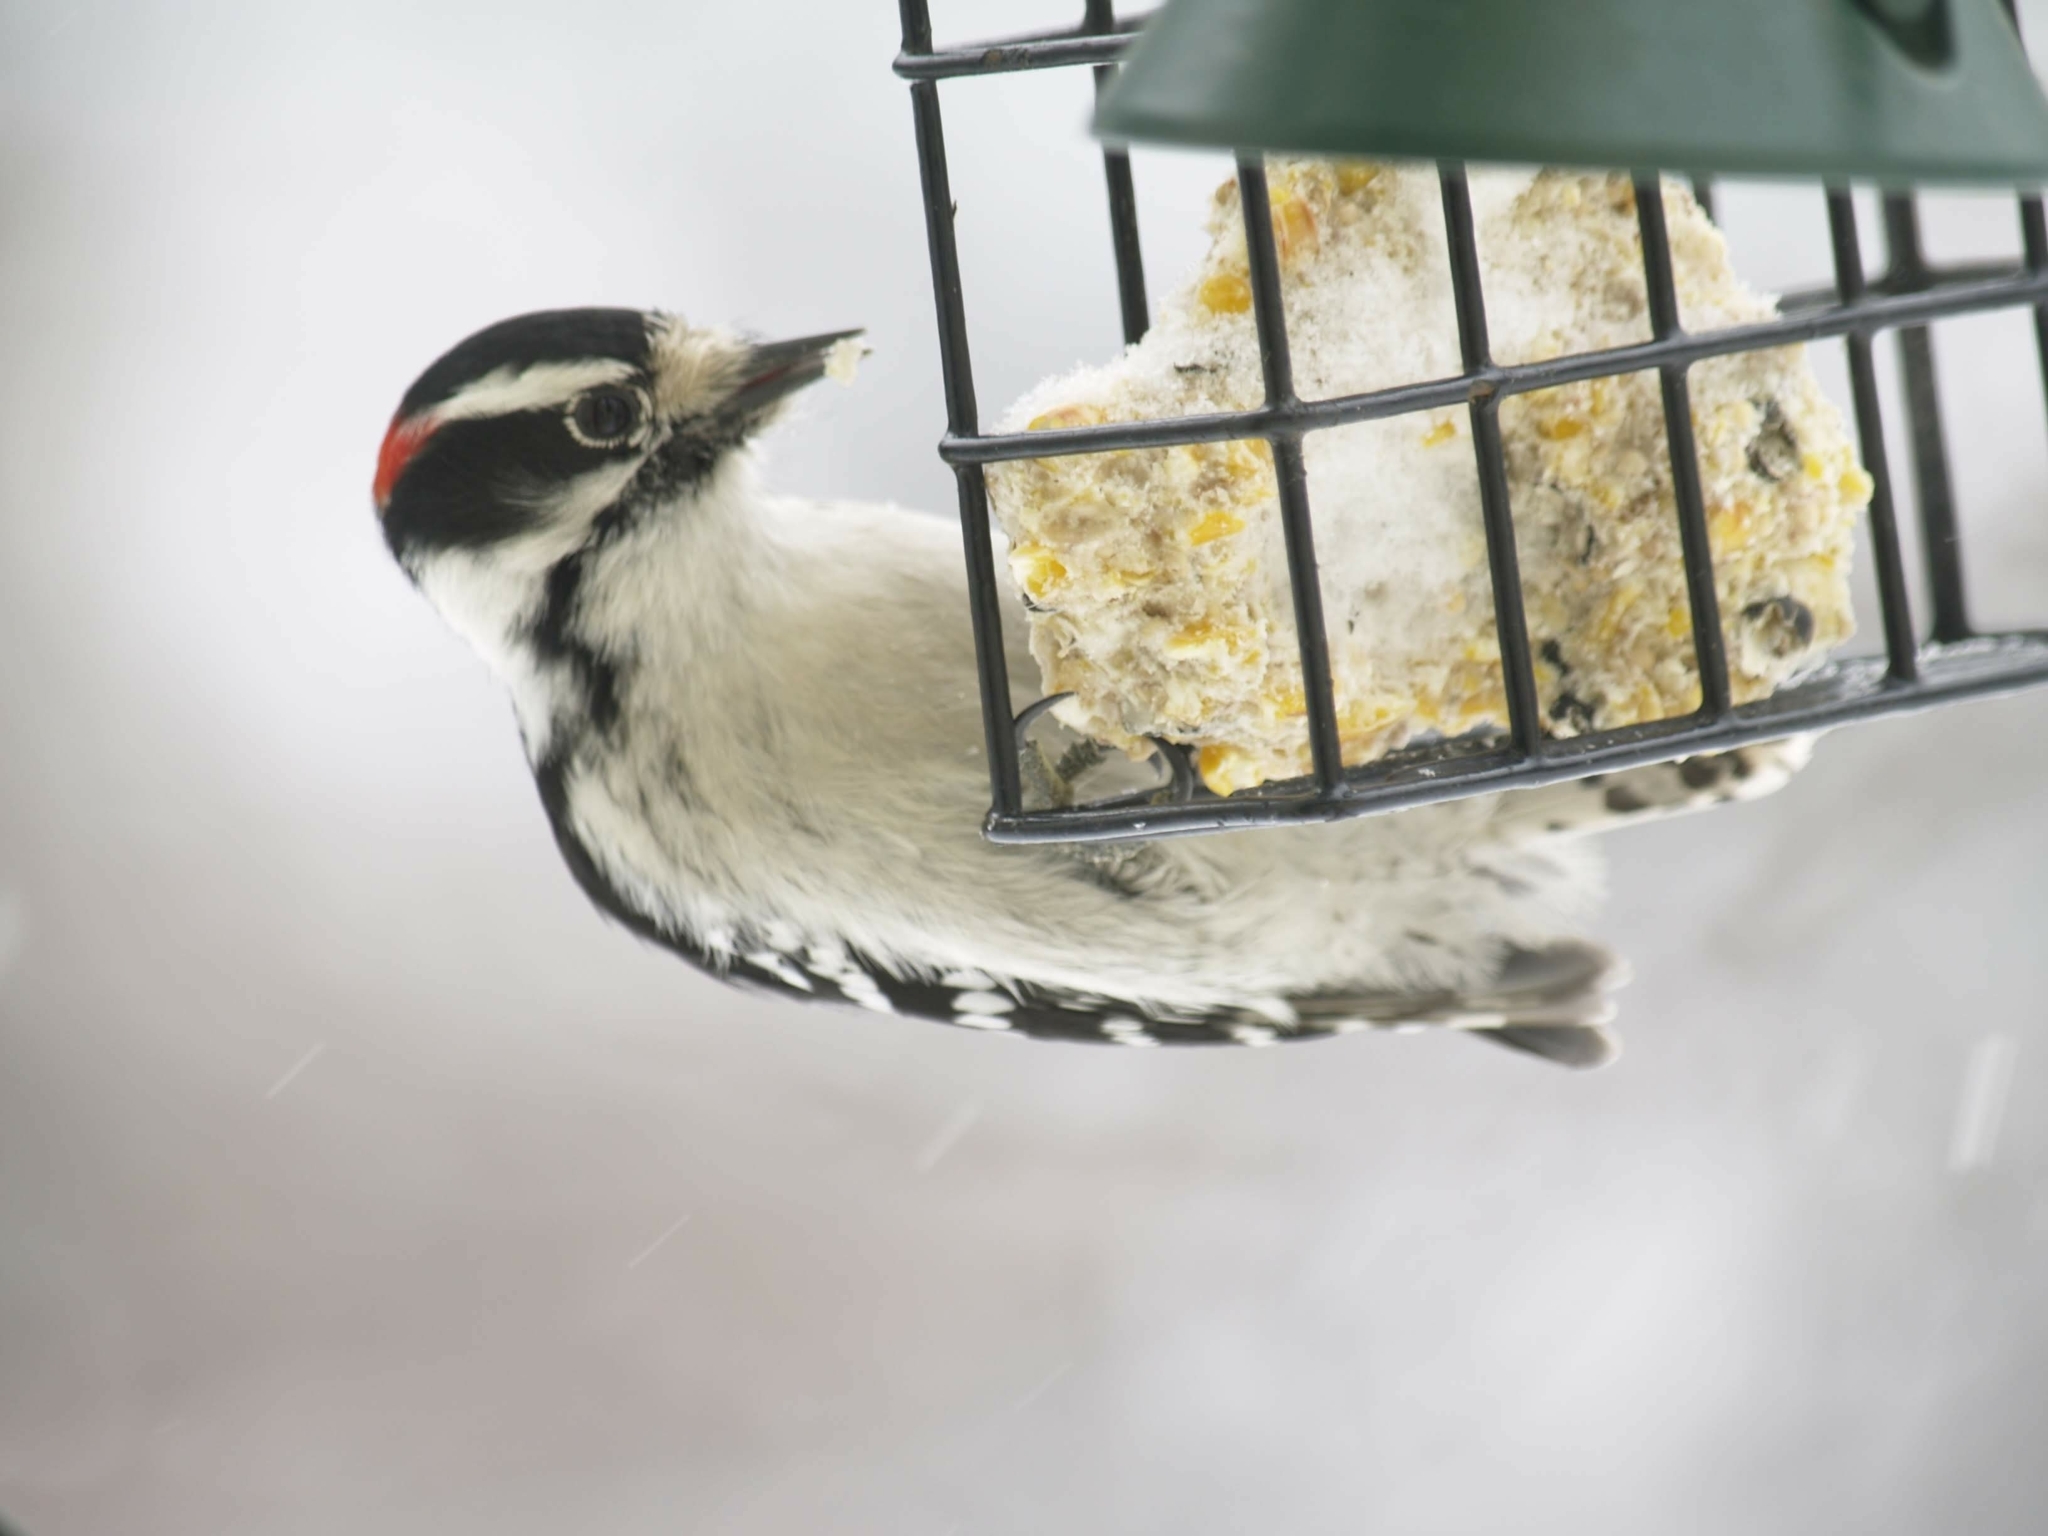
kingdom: Animalia
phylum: Chordata
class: Aves
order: Piciformes
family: Picidae
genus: Dryobates
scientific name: Dryobates pubescens
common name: Downy woodpecker
